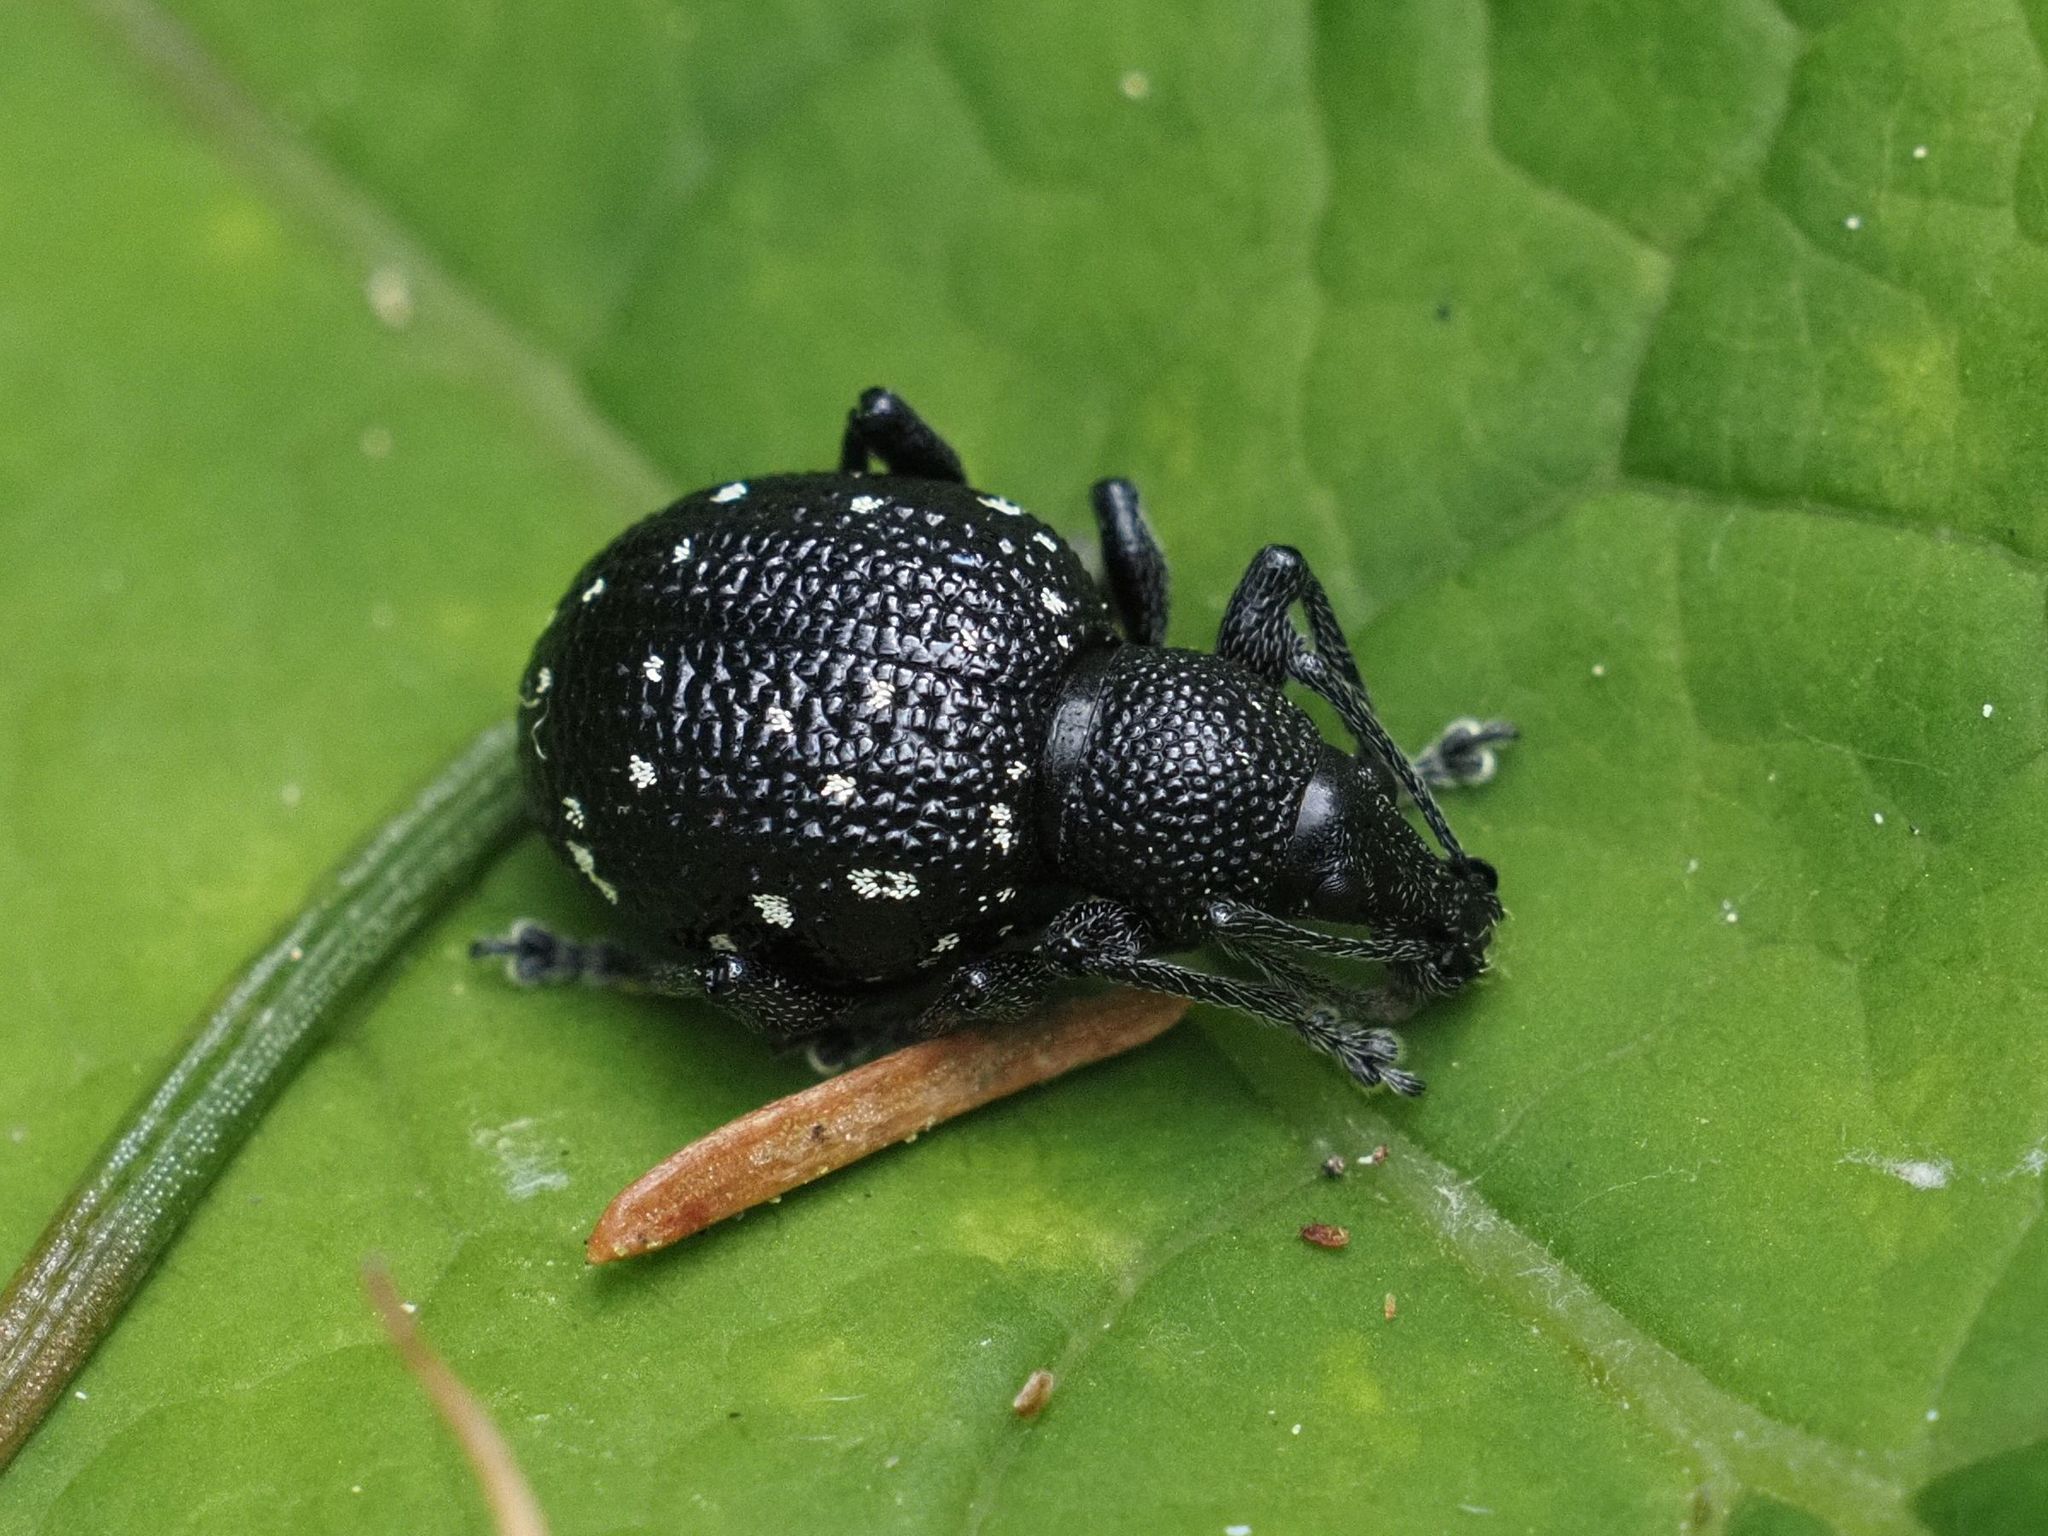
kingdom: Animalia
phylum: Arthropoda
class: Insecta
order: Coleoptera
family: Curculionidae
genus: Otiorhynchus
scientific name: Otiorhynchus gemmatus
